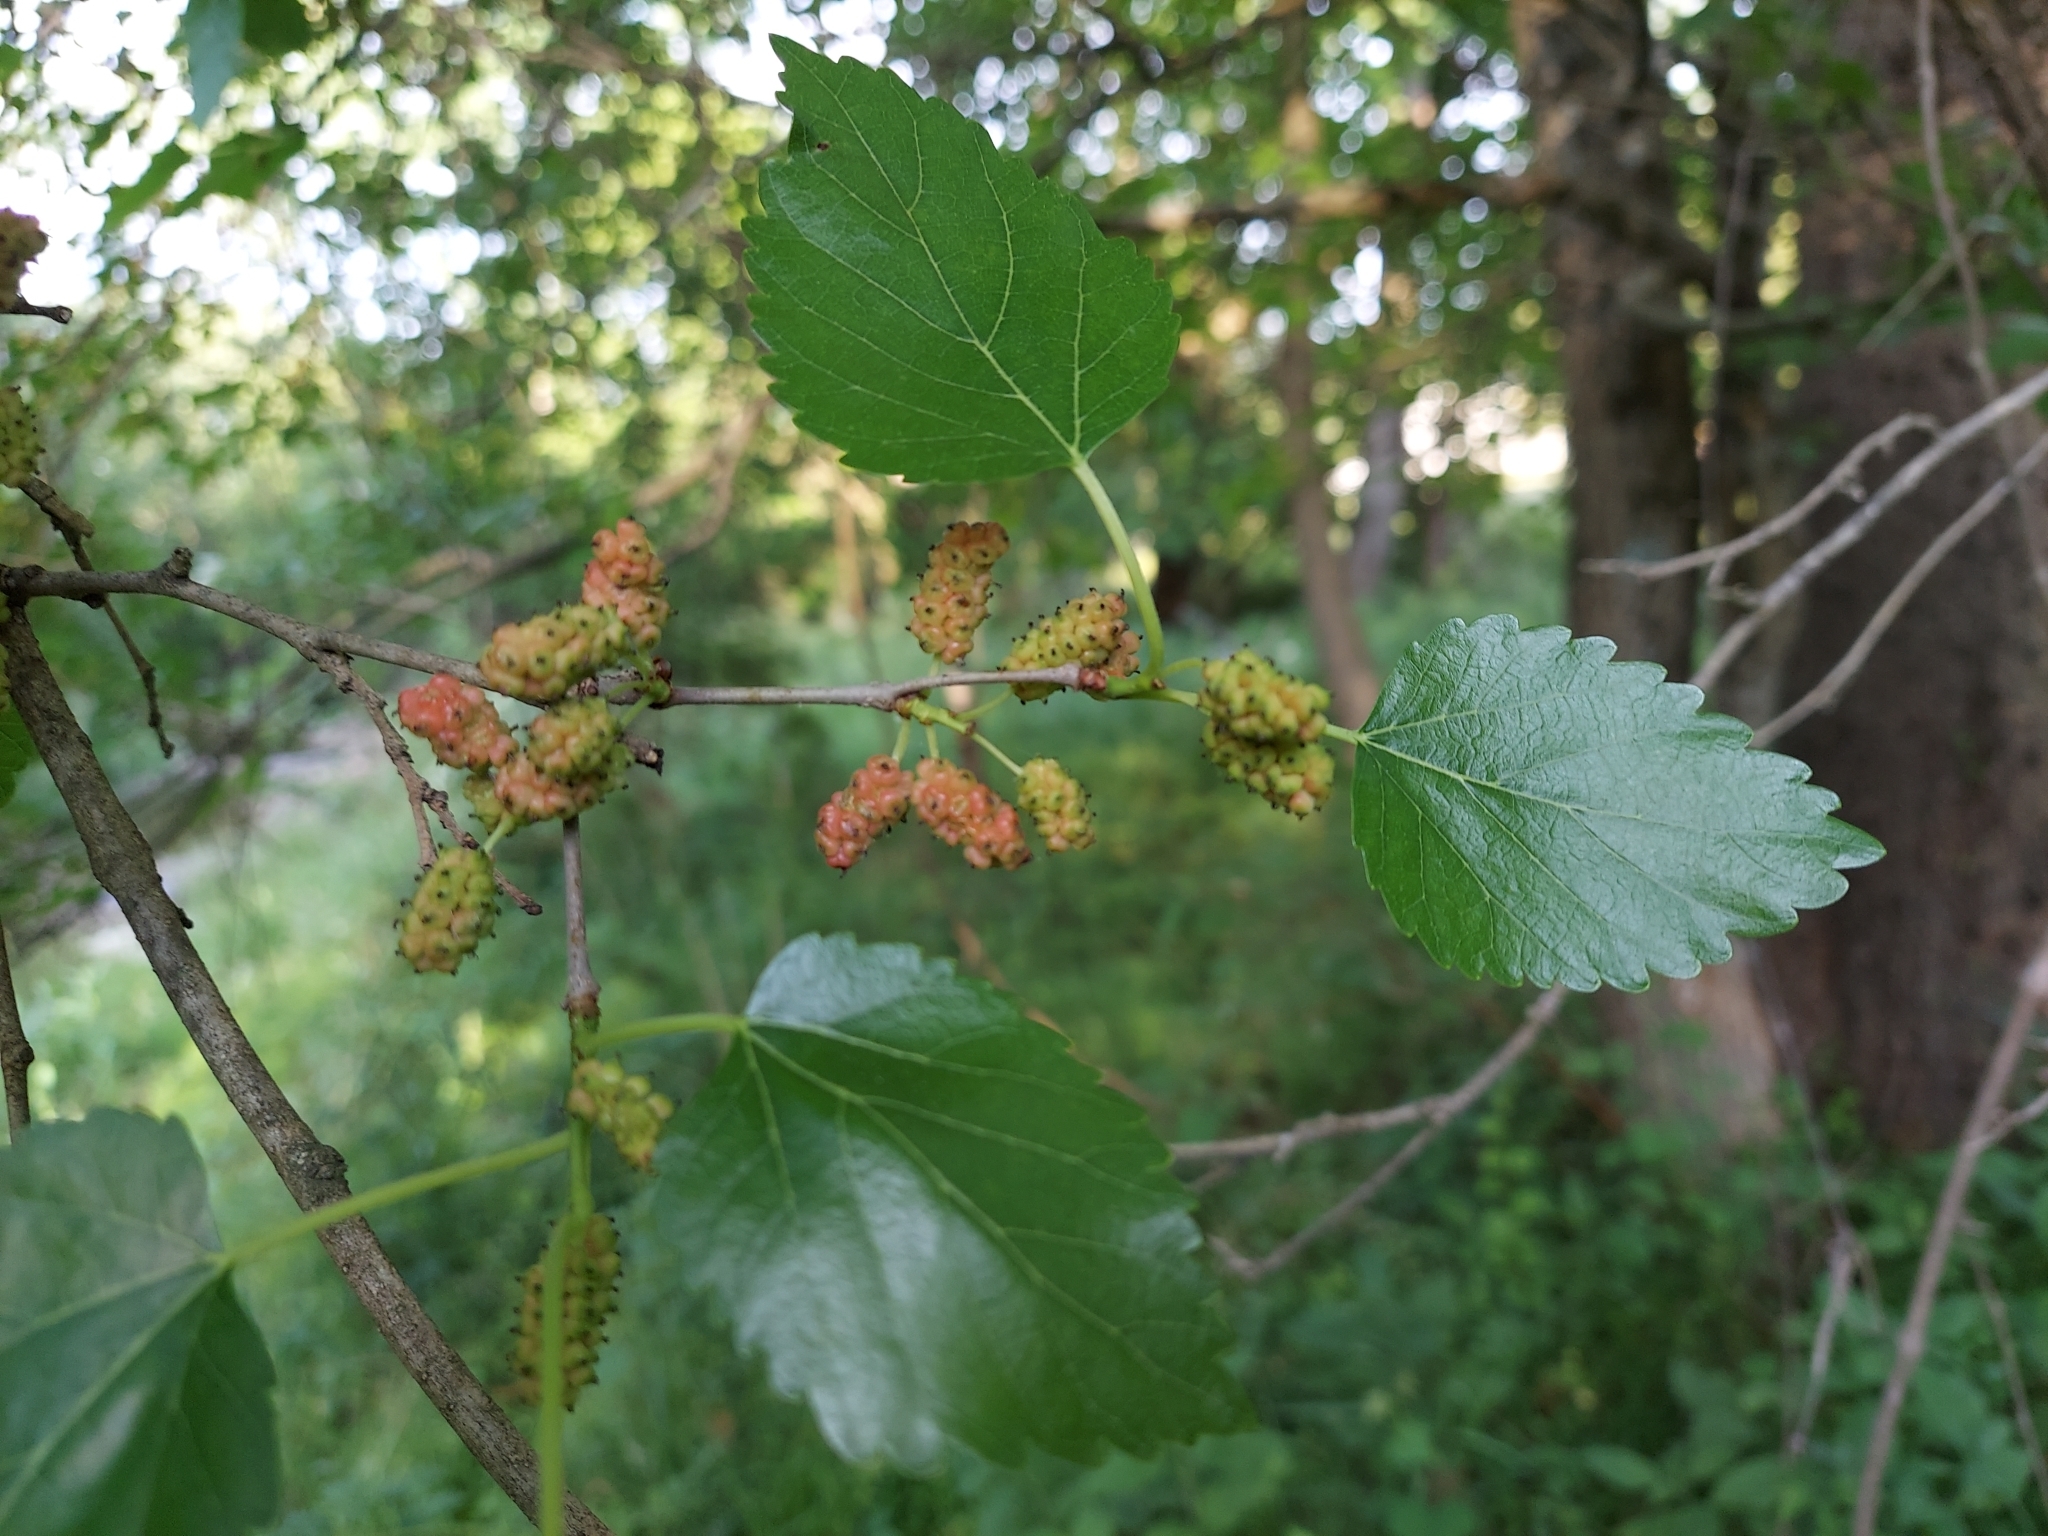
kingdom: Plantae
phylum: Tracheophyta
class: Magnoliopsida
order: Rosales
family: Moraceae
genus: Morus
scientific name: Morus alba
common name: White mulberry
